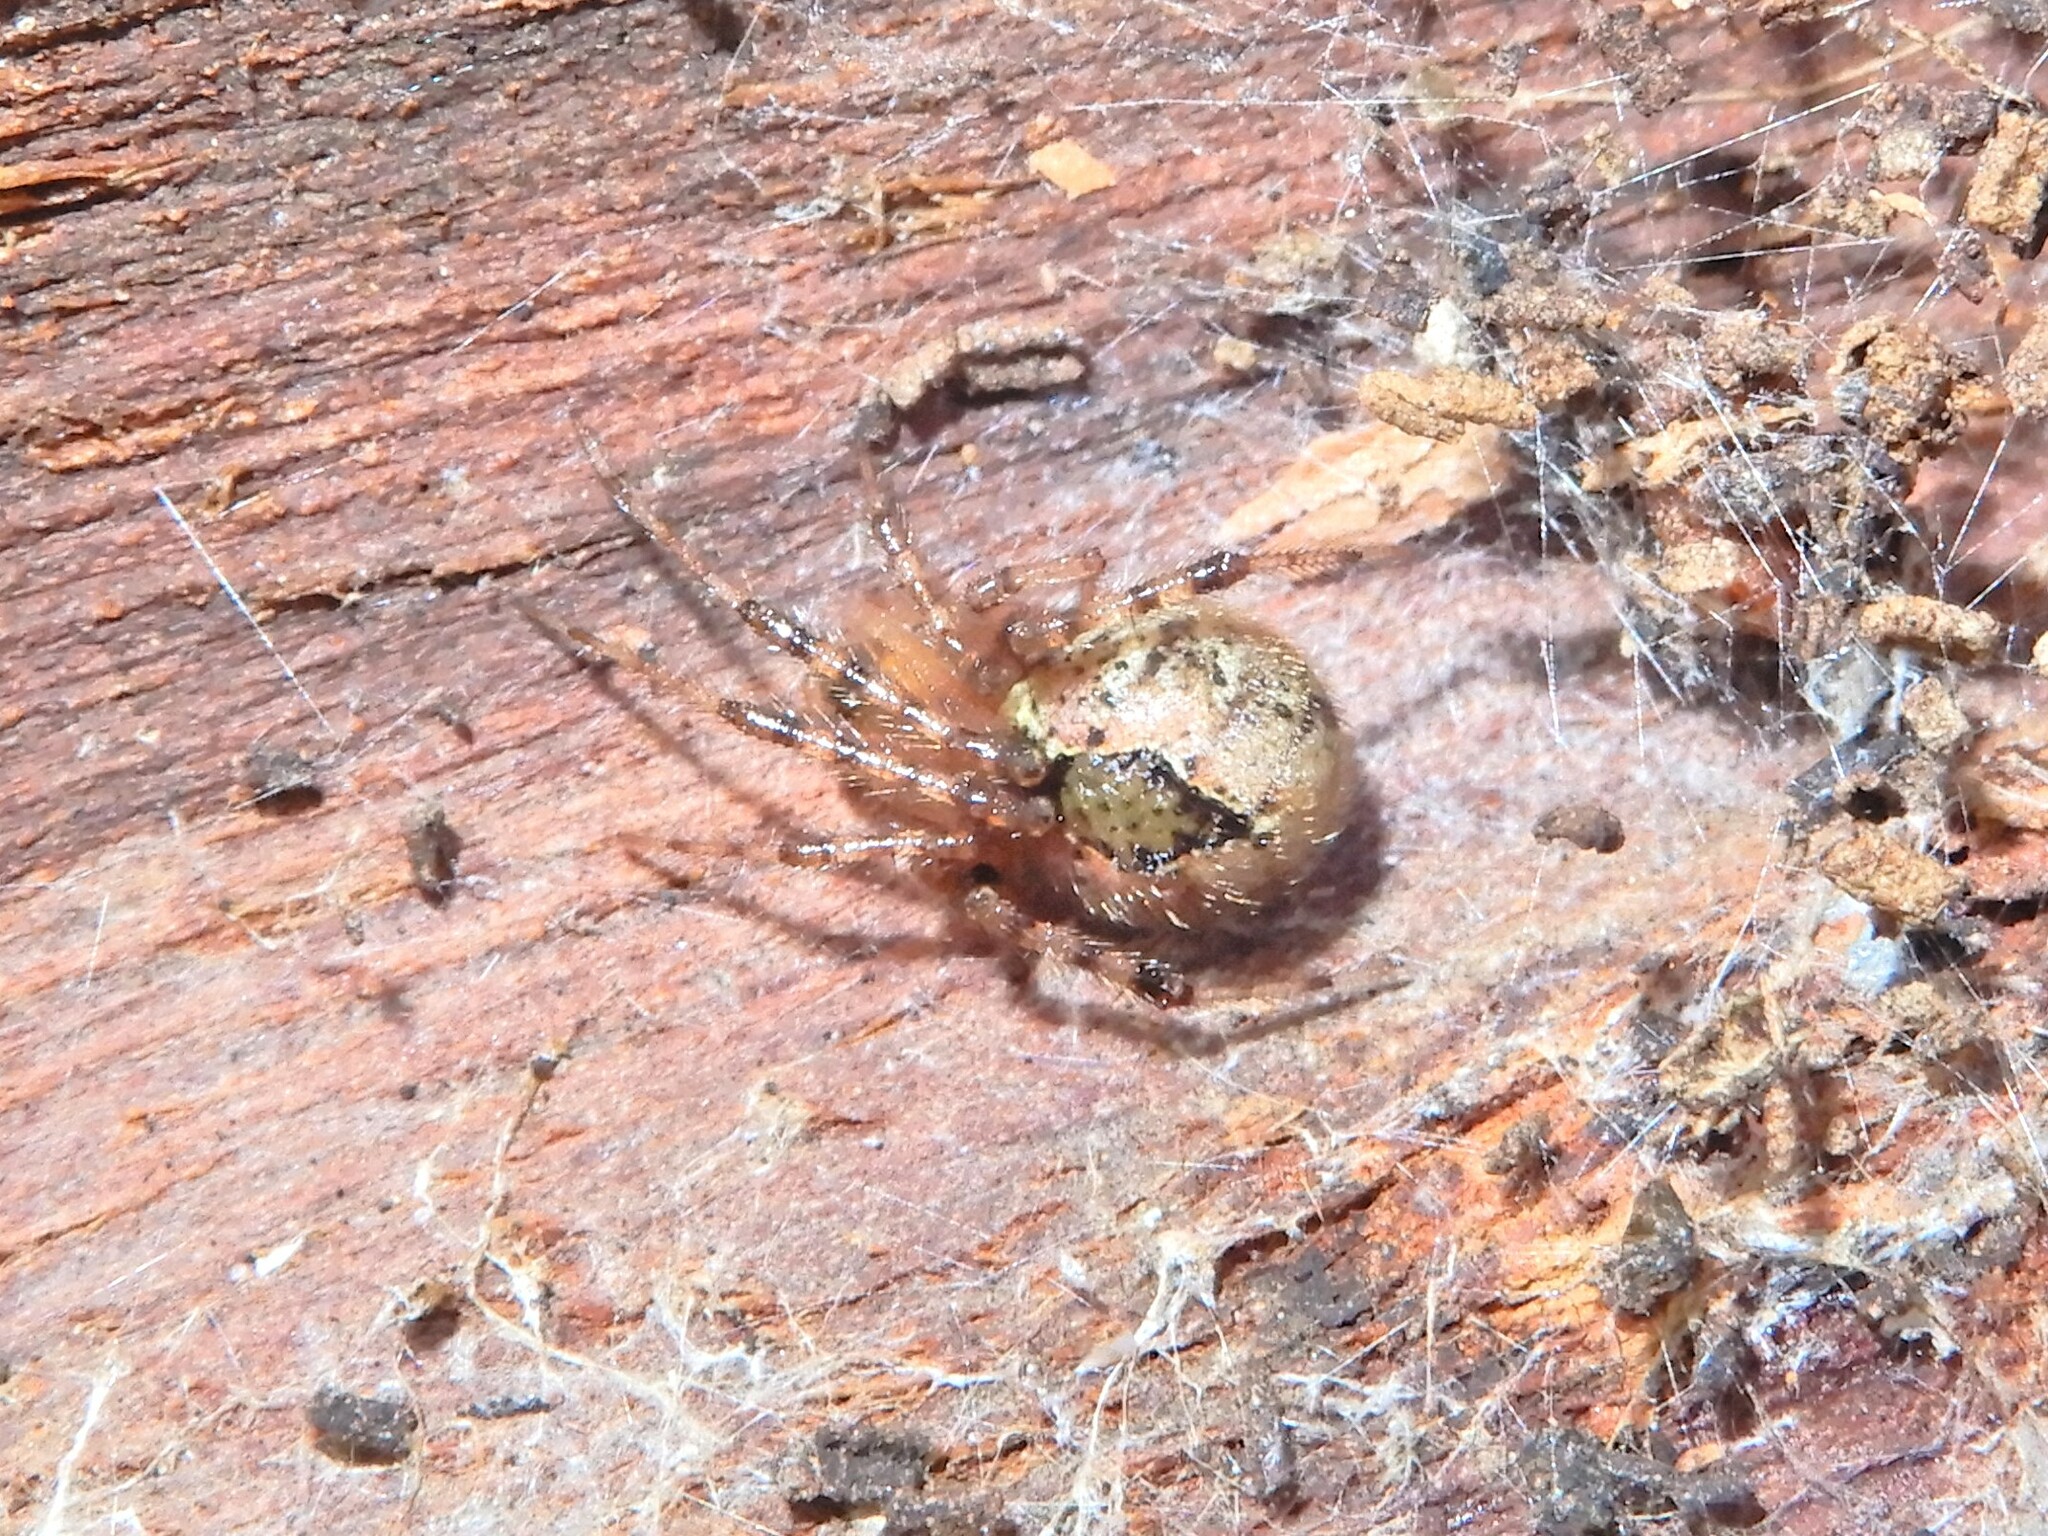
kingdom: Animalia
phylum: Arthropoda
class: Arachnida
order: Araneae
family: Theridiidae
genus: Cryptachaea
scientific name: Cryptachaea veruculata
